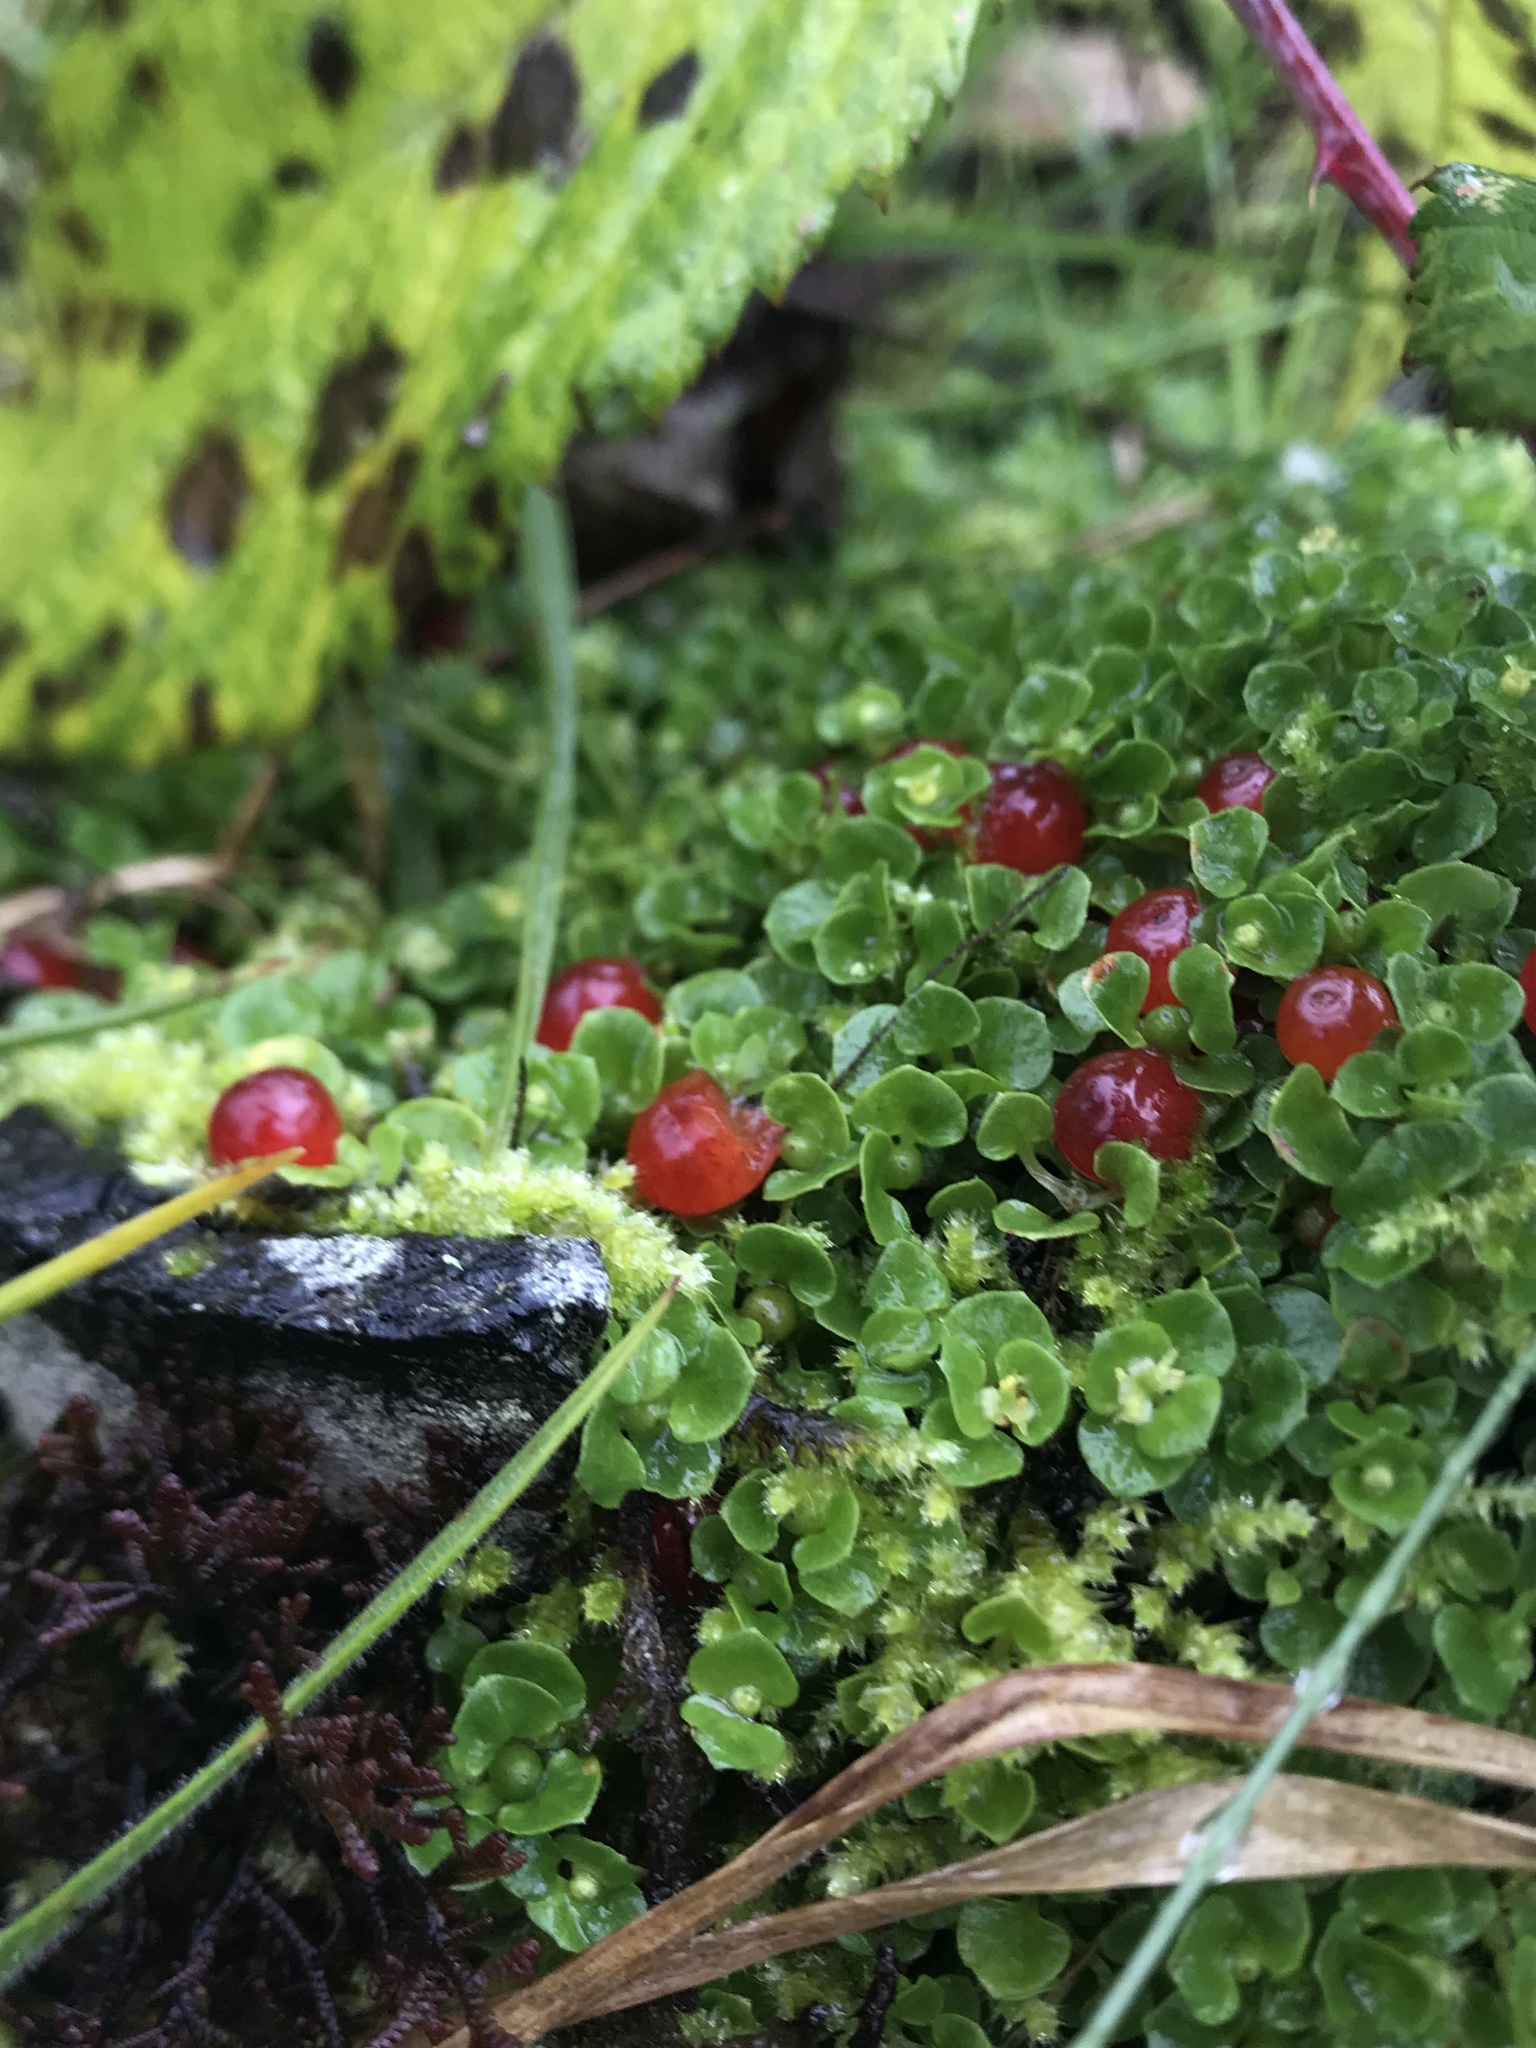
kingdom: Plantae
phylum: Tracheophyta
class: Magnoliopsida
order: Gentianales
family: Rubiaceae
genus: Nertera
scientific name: Nertera granadensis
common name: Beadplant
